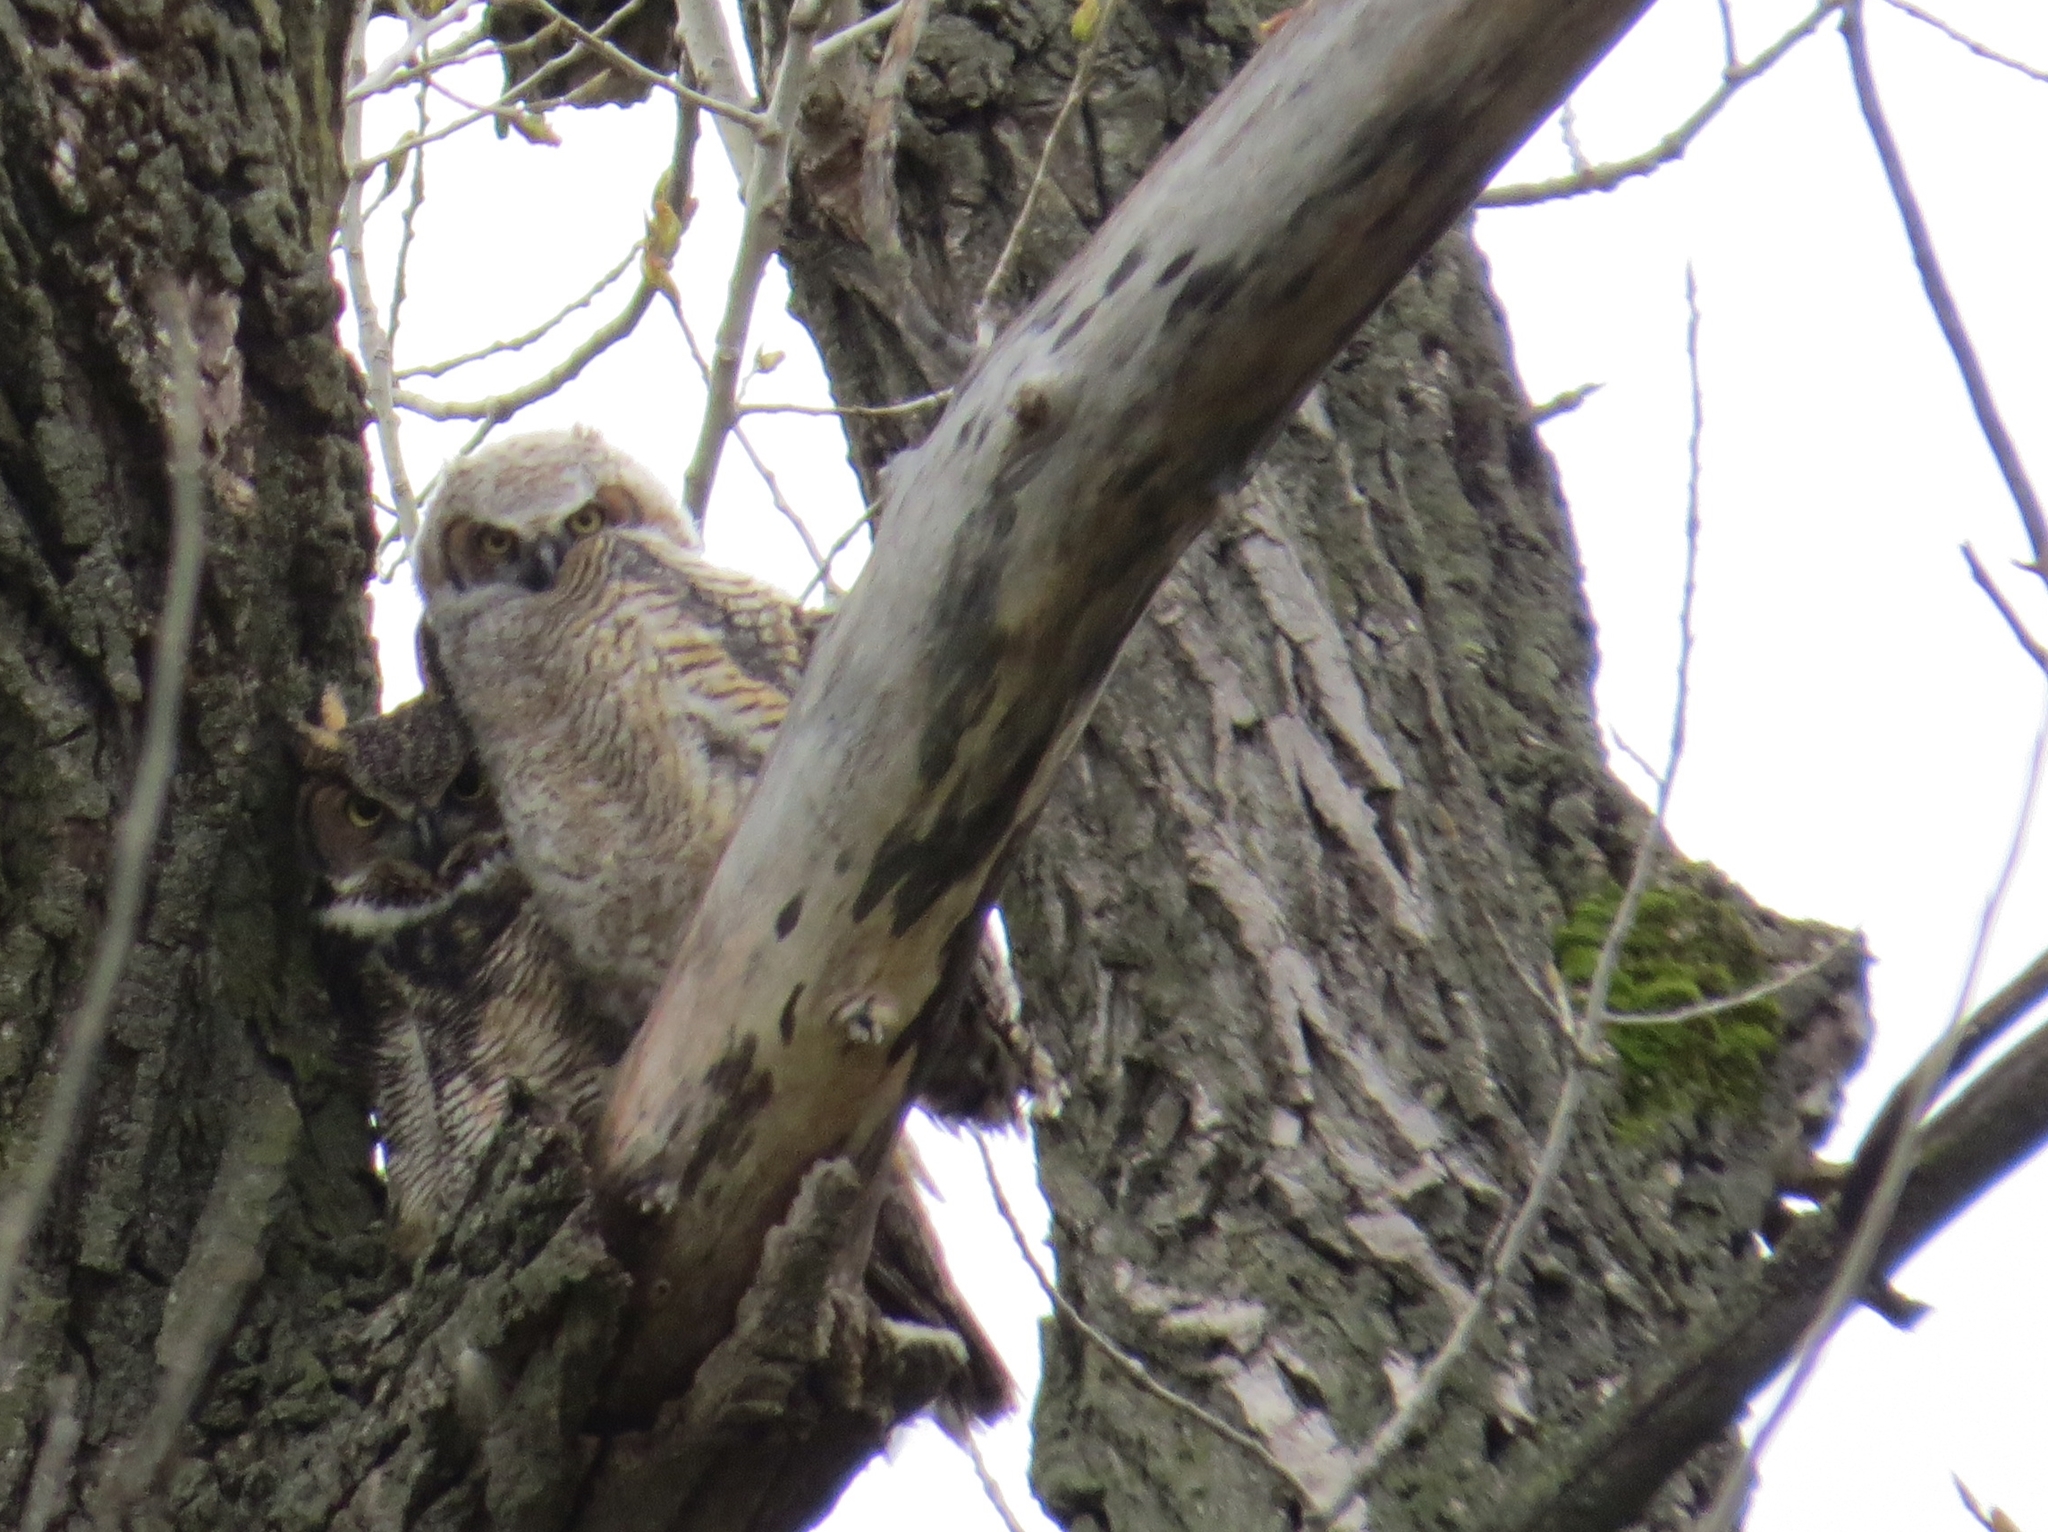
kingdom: Animalia
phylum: Chordata
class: Aves
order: Strigiformes
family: Strigidae
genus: Bubo
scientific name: Bubo virginianus
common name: Great horned owl
